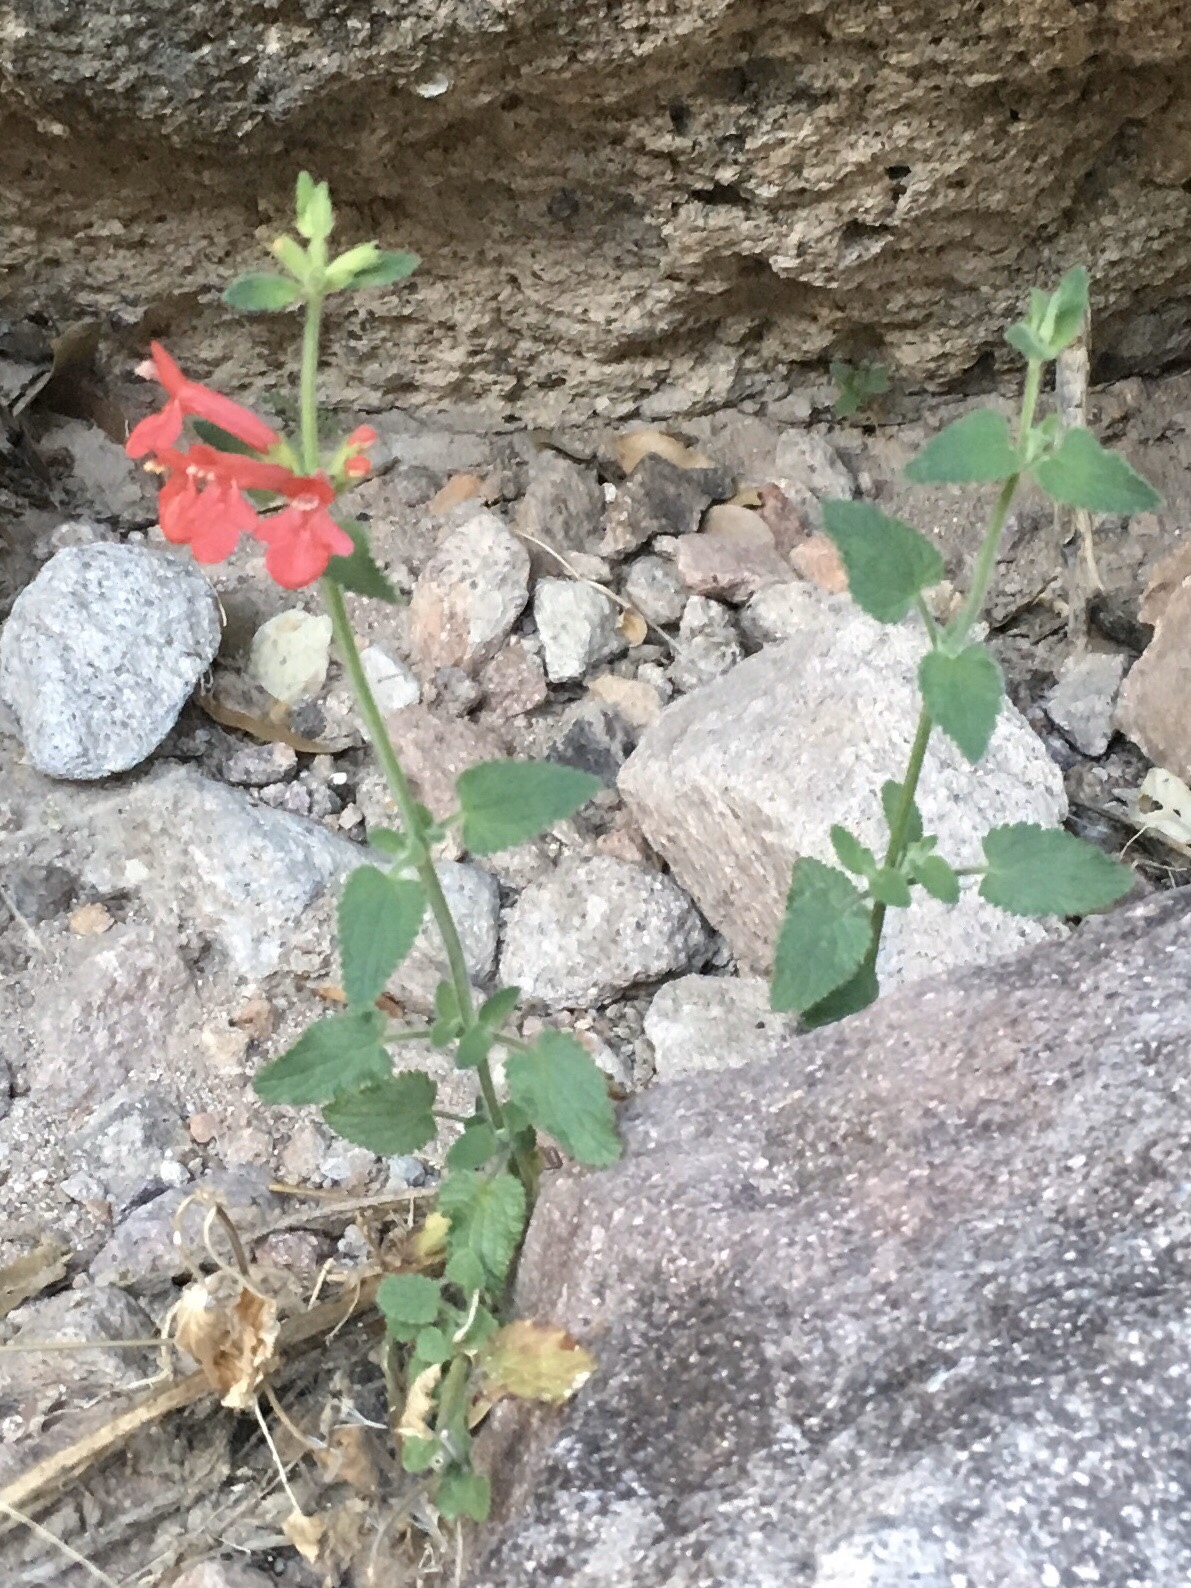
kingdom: Plantae
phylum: Tracheophyta
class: Magnoliopsida
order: Lamiales
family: Lamiaceae
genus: Stachys
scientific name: Stachys coccinea
